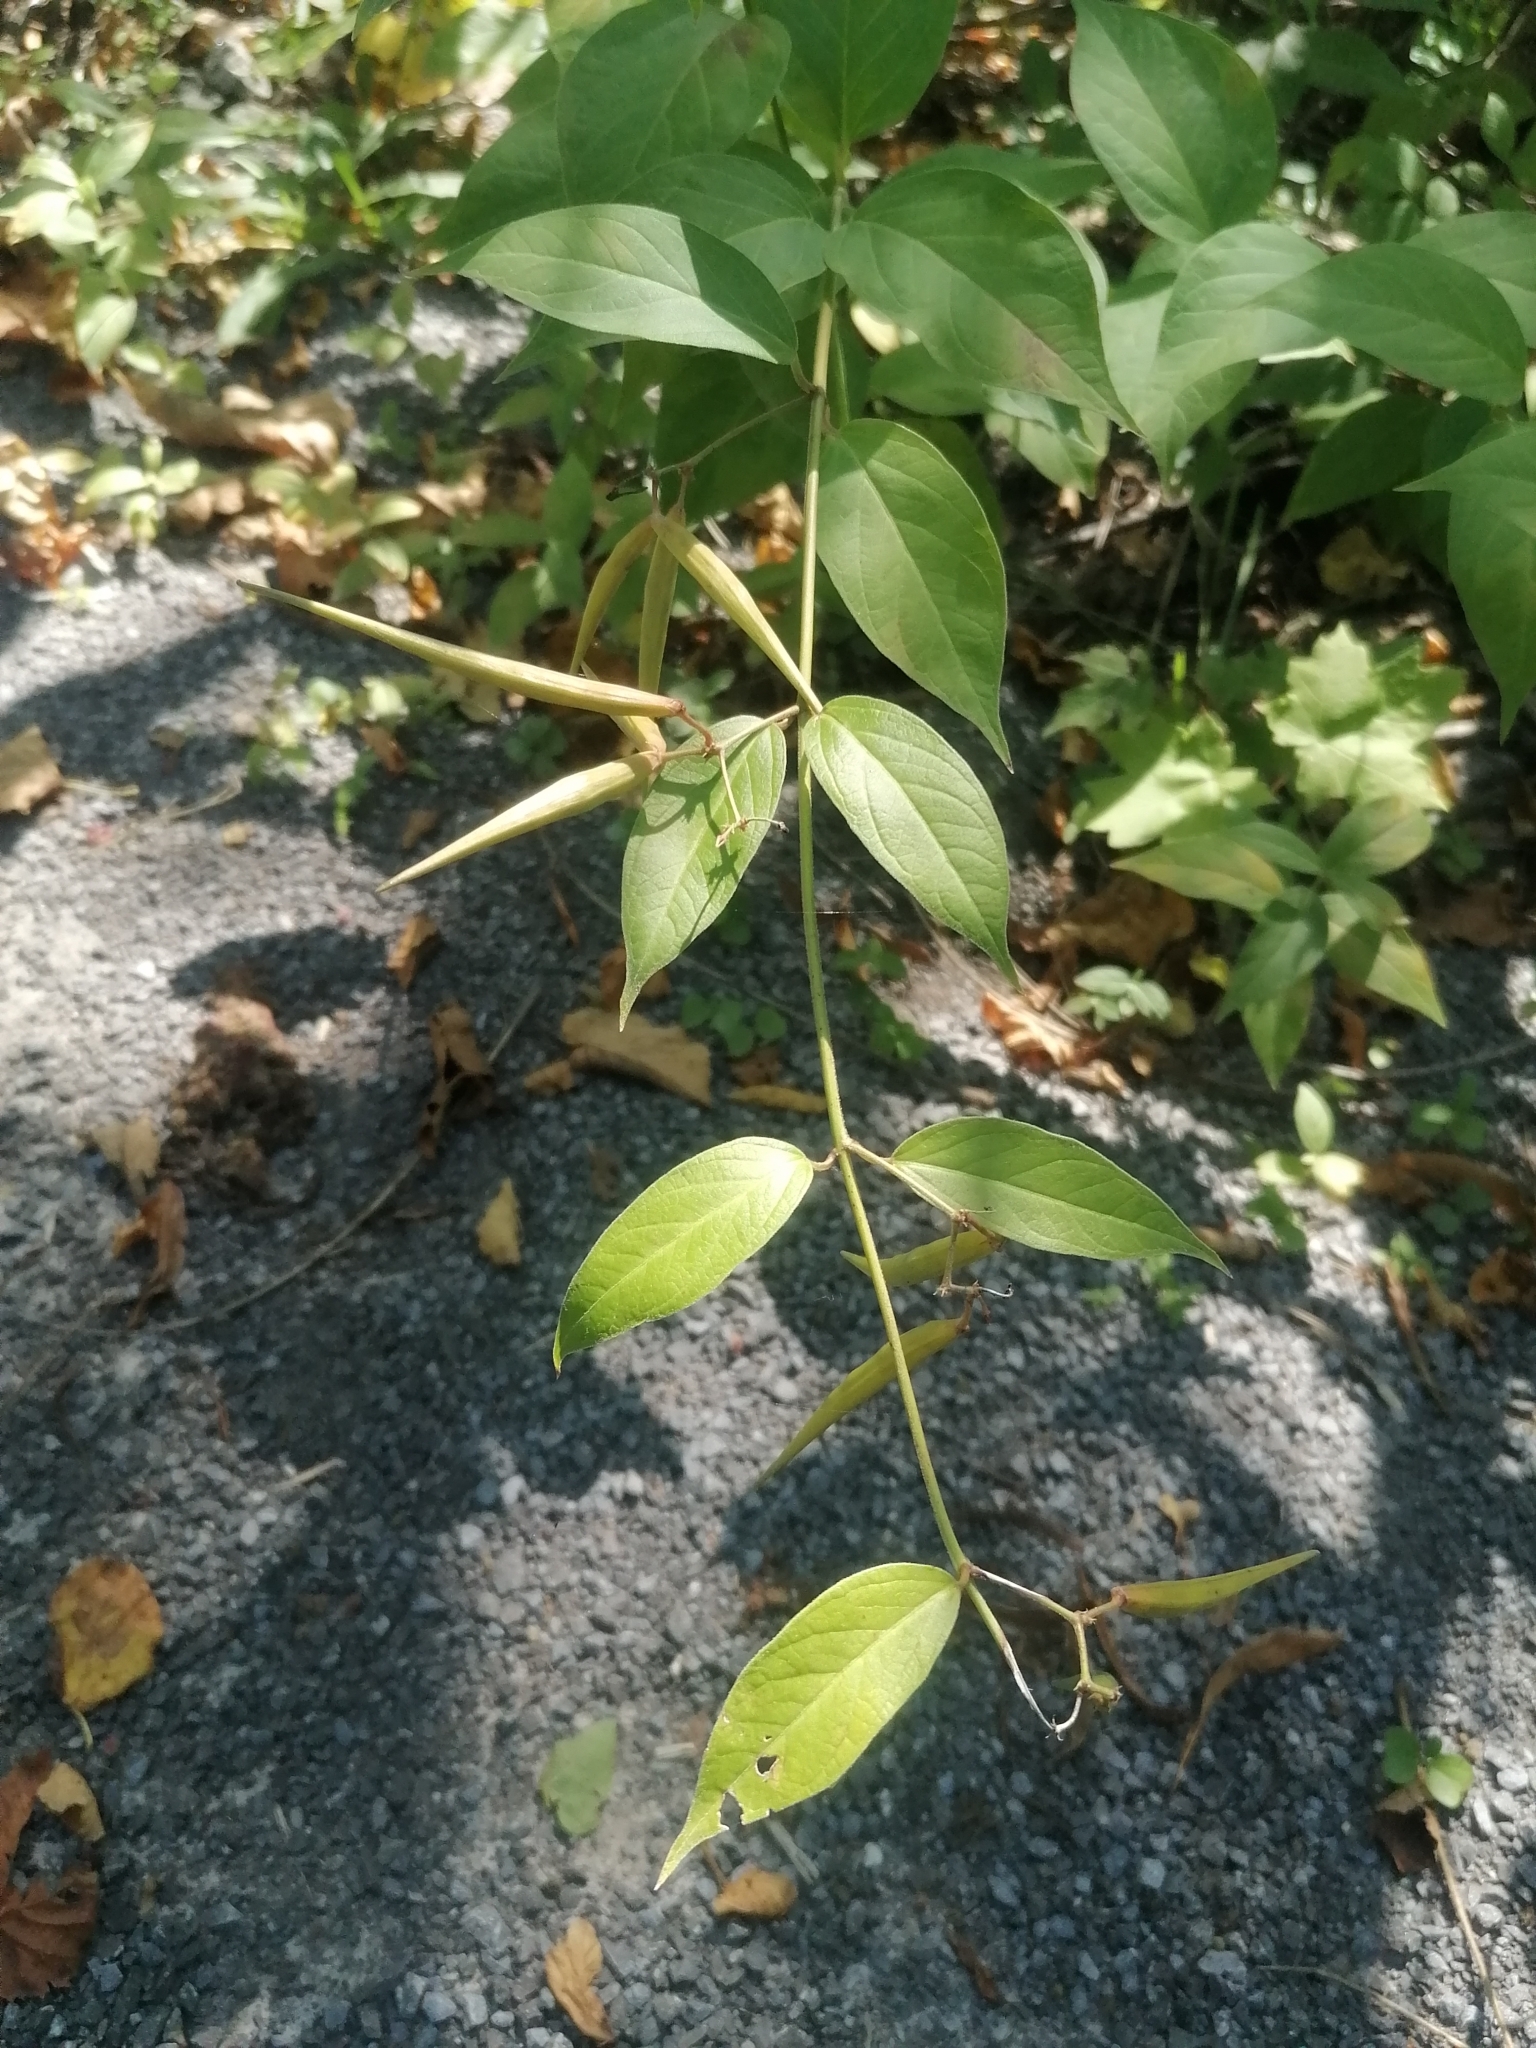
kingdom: Plantae
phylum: Tracheophyta
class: Magnoliopsida
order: Gentianales
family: Apocynaceae
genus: Vincetoxicum
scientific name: Vincetoxicum rossicum
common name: Dog-strangling vine
